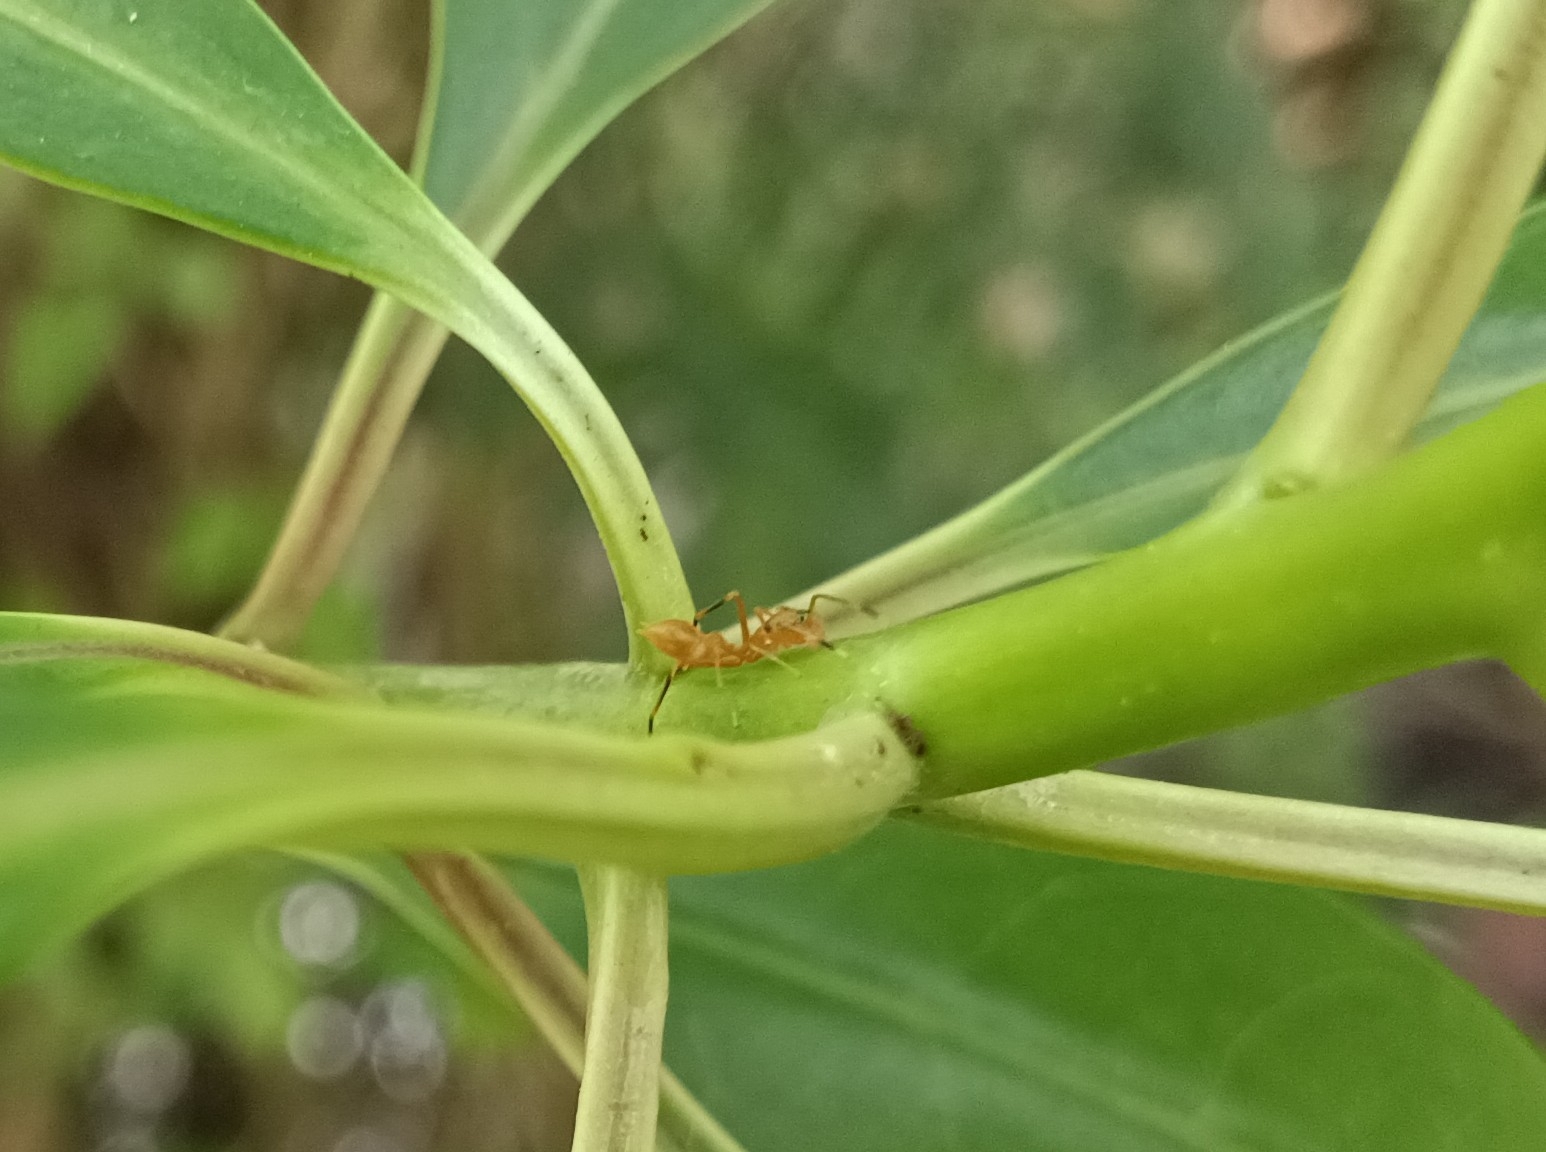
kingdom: Animalia
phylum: Arthropoda
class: Arachnida
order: Araneae
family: Salticidae
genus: Myrmaplata
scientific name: Myrmaplata plataleoides
